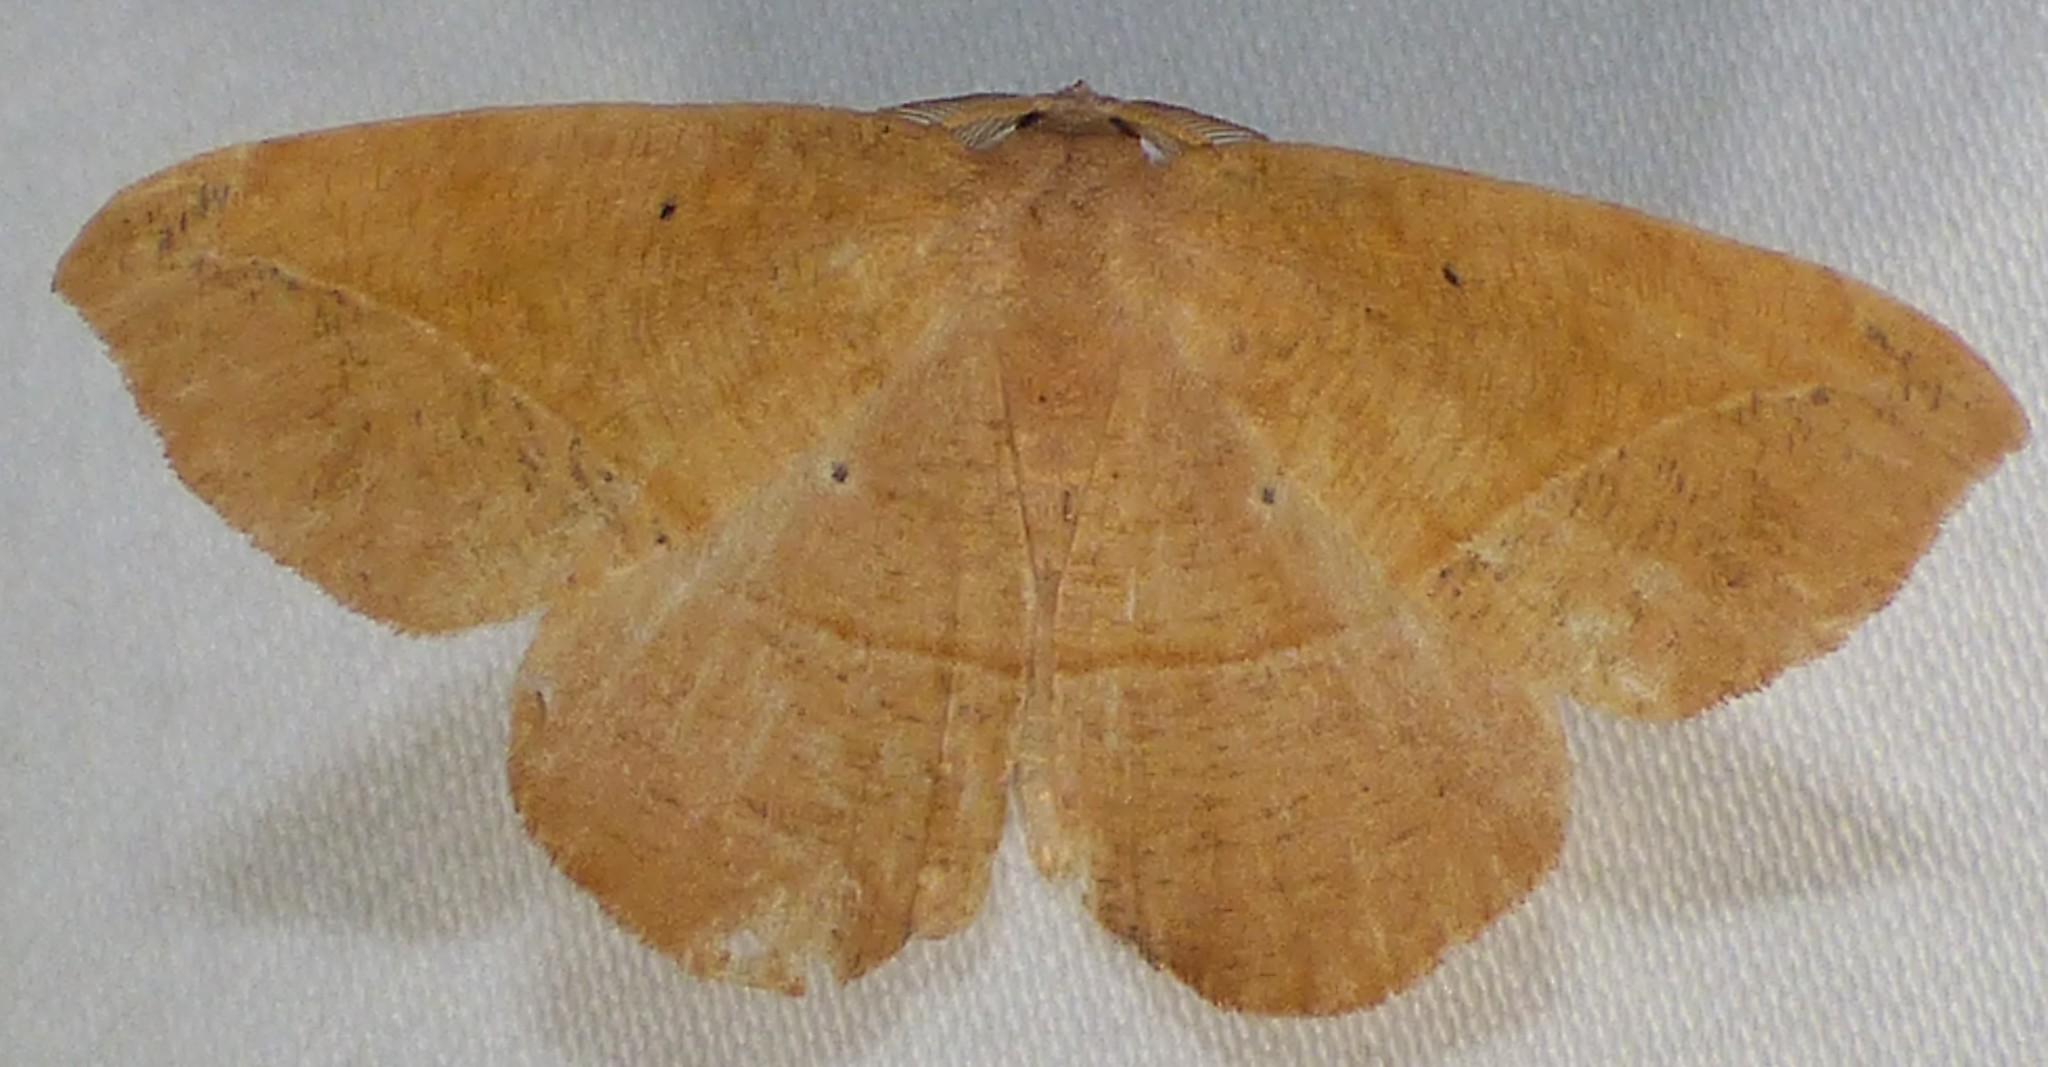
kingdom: Animalia
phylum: Arthropoda
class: Insecta
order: Lepidoptera
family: Geometridae
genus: Patalene
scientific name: Patalene olyzonaria
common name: Juniper geometer moth
